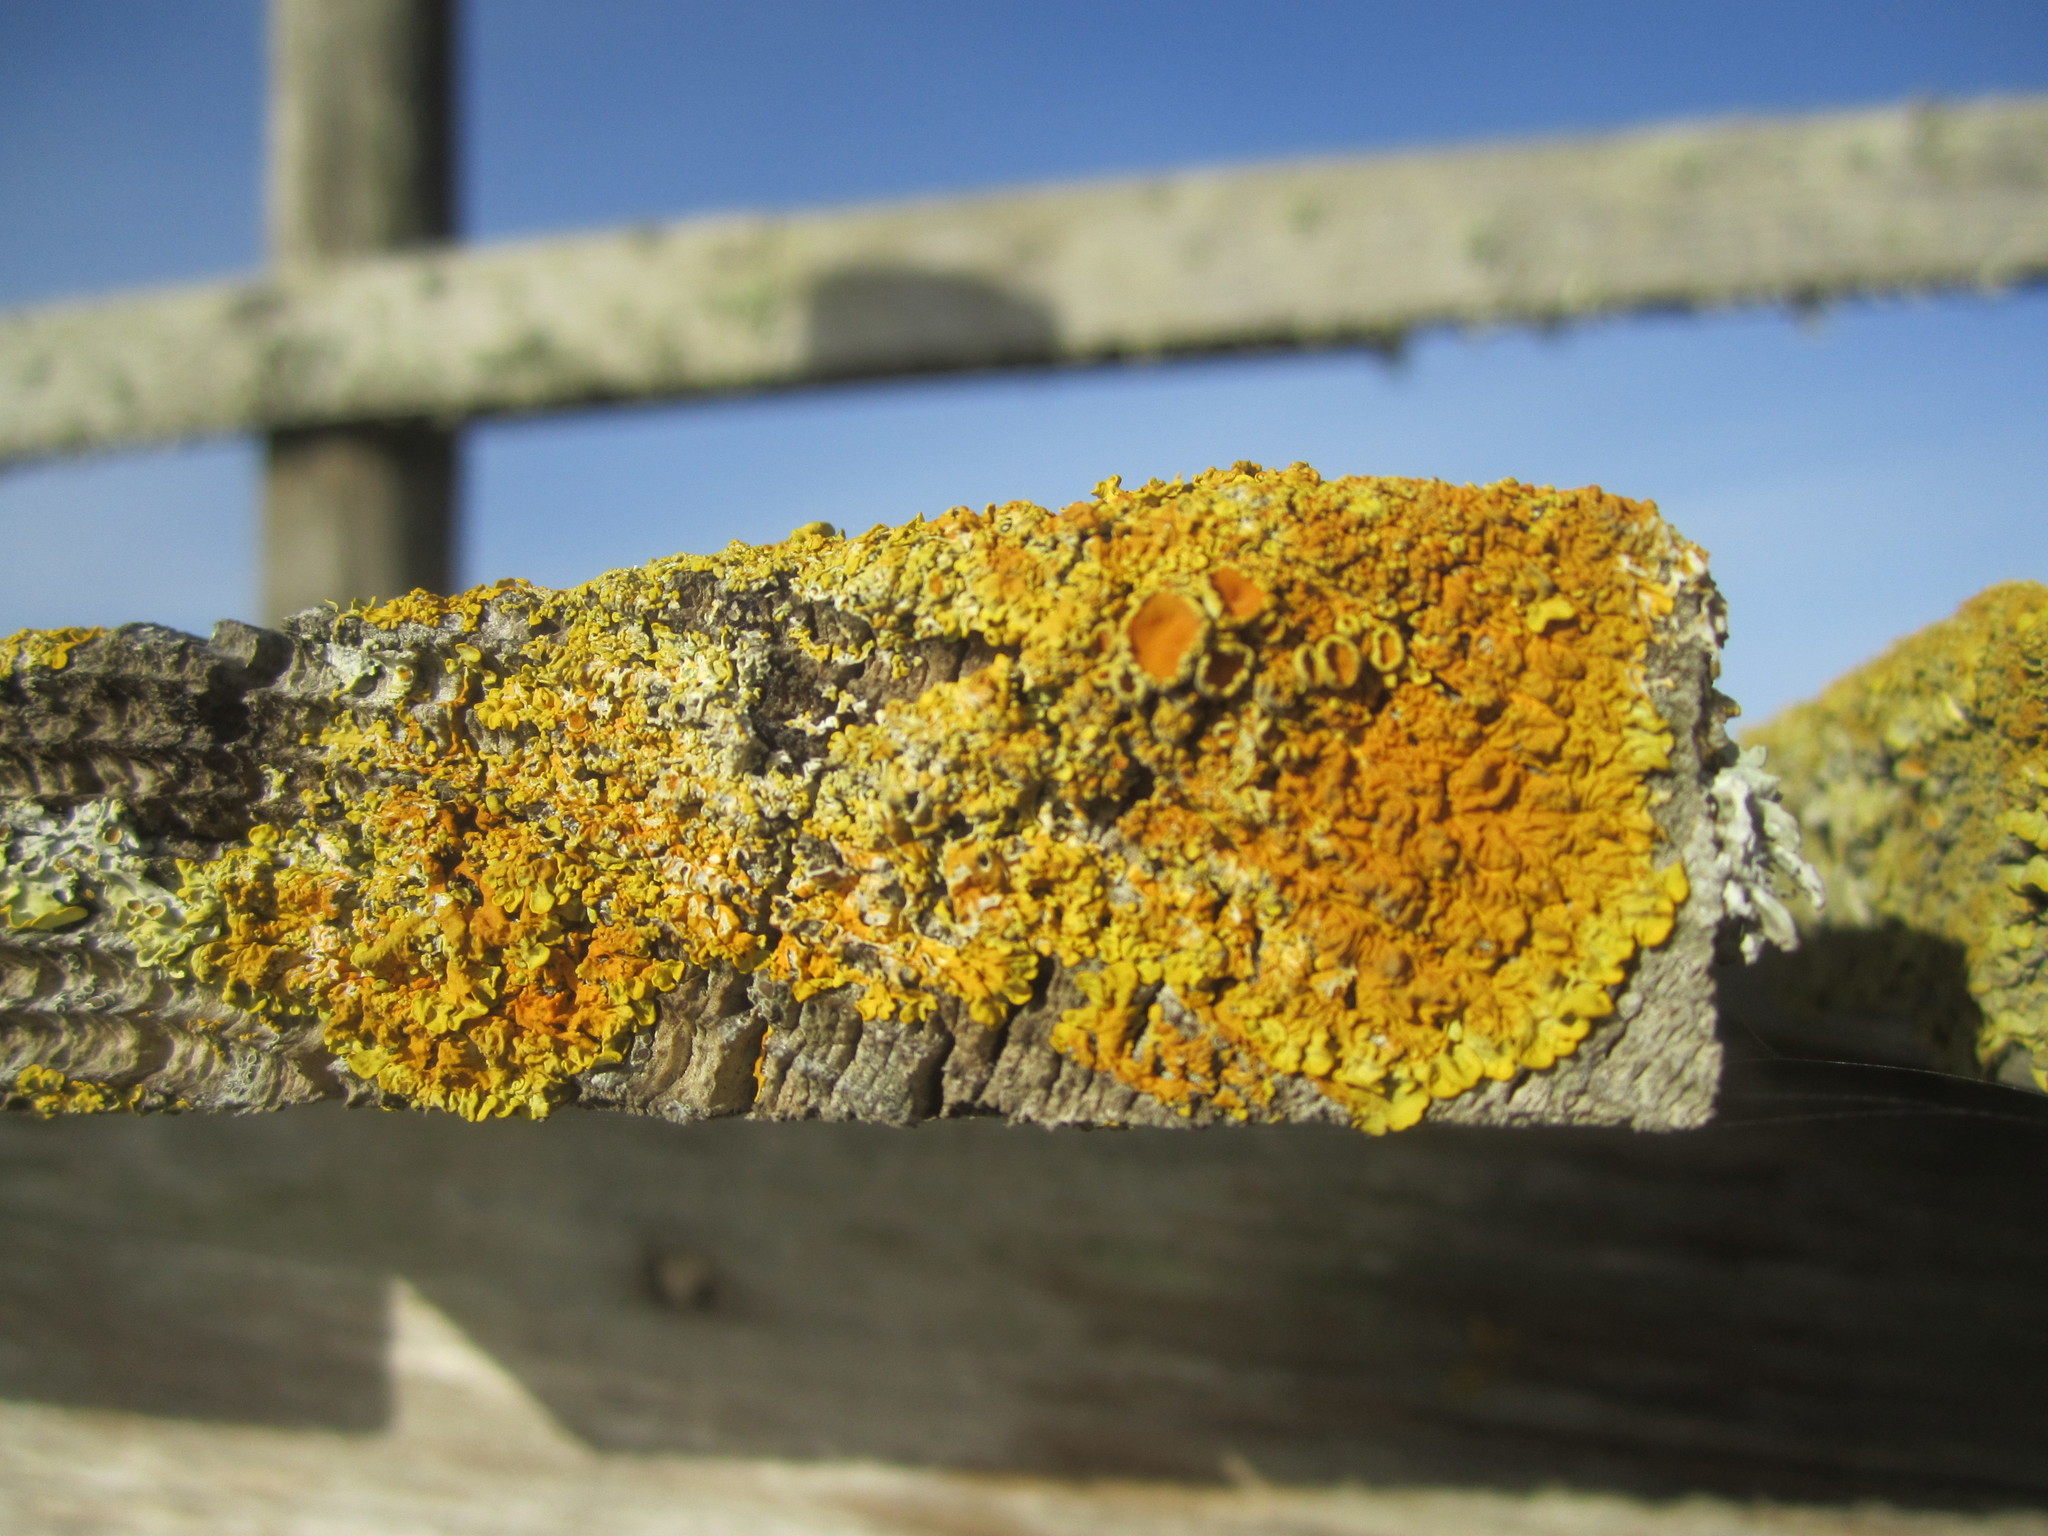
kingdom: Fungi
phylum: Ascomycota
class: Lecanoromycetes
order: Teloschistales
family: Teloschistaceae
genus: Xanthoria
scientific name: Xanthoria parietina
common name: Common orange lichen
